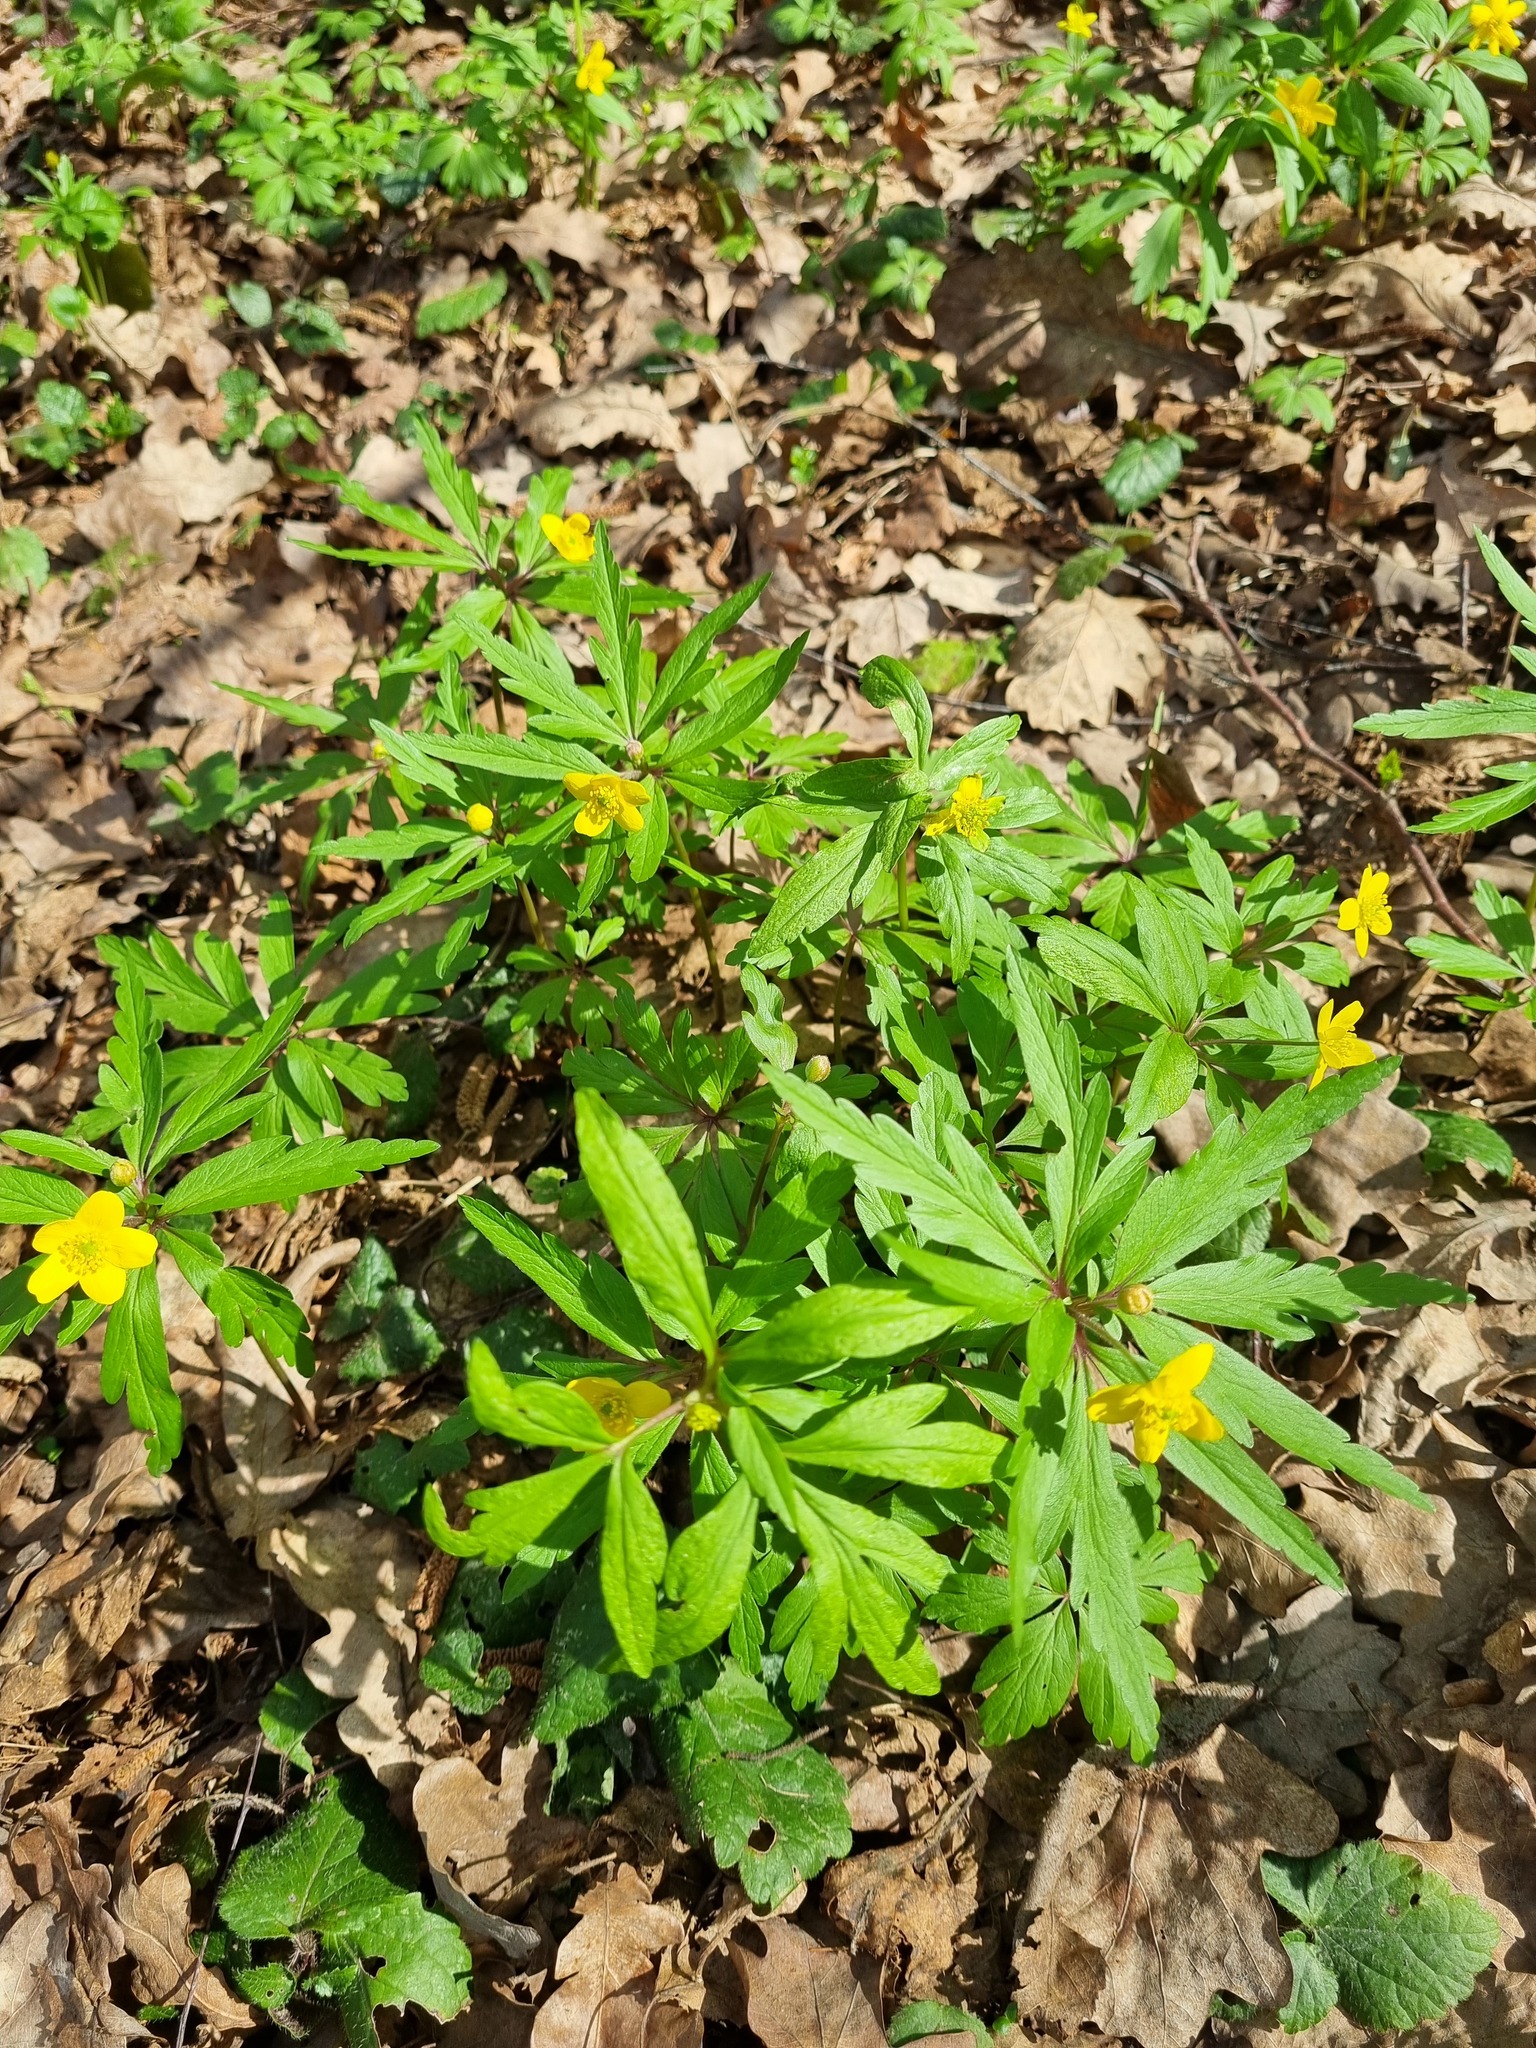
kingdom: Plantae
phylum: Tracheophyta
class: Magnoliopsida
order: Ranunculales
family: Ranunculaceae
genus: Anemone
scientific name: Anemone ranunculoides
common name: Yellow anemone
